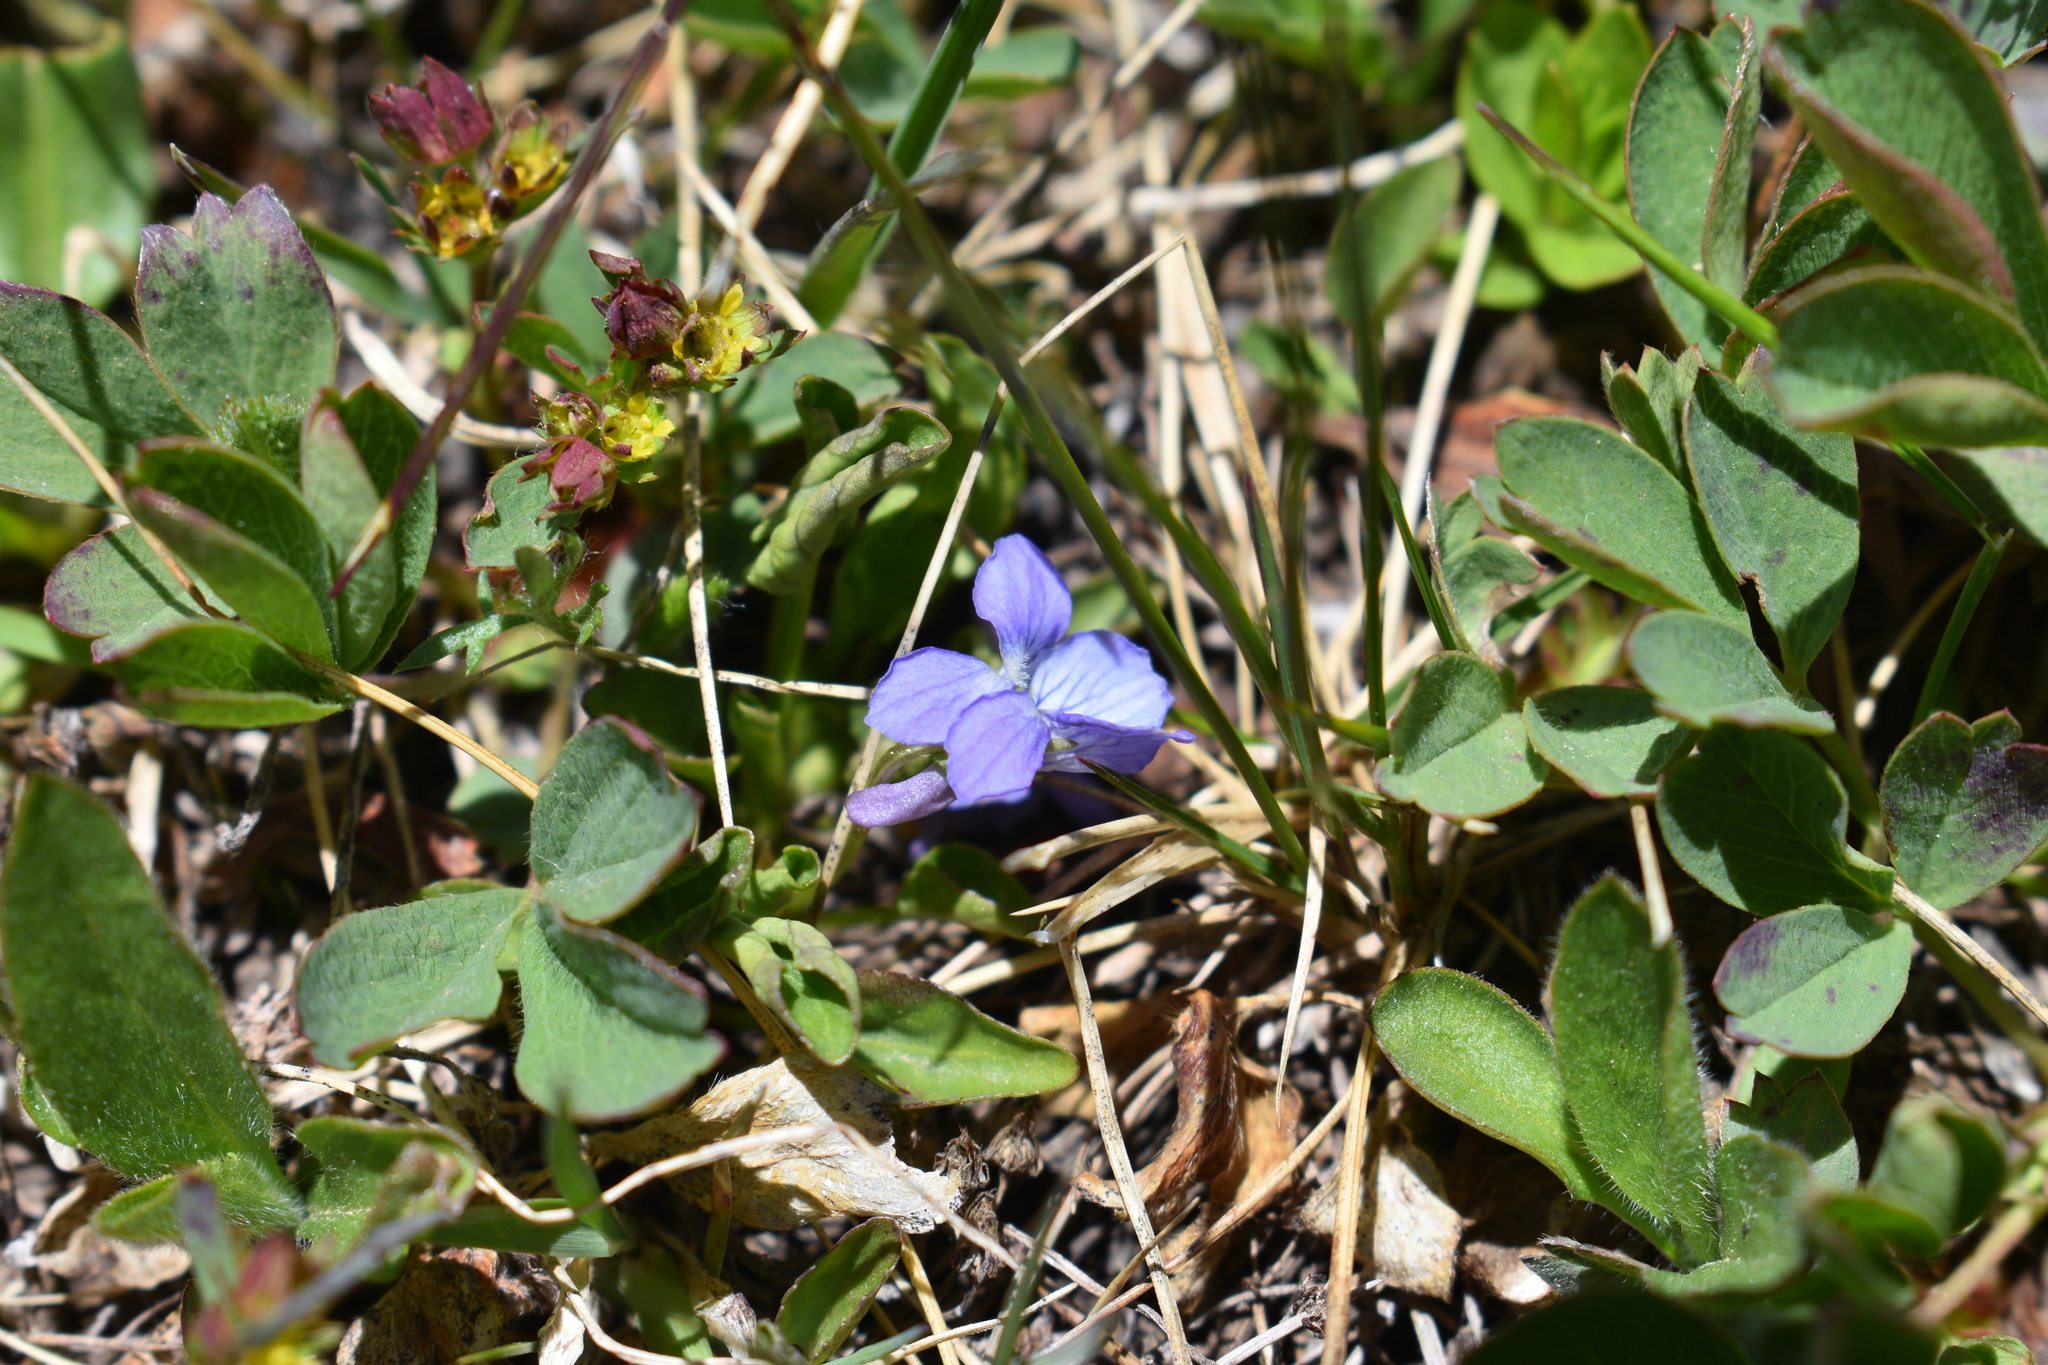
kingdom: Plantae
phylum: Tracheophyta
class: Magnoliopsida
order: Malpighiales
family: Violaceae
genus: Viola
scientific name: Viola adunca
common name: Sand violet
